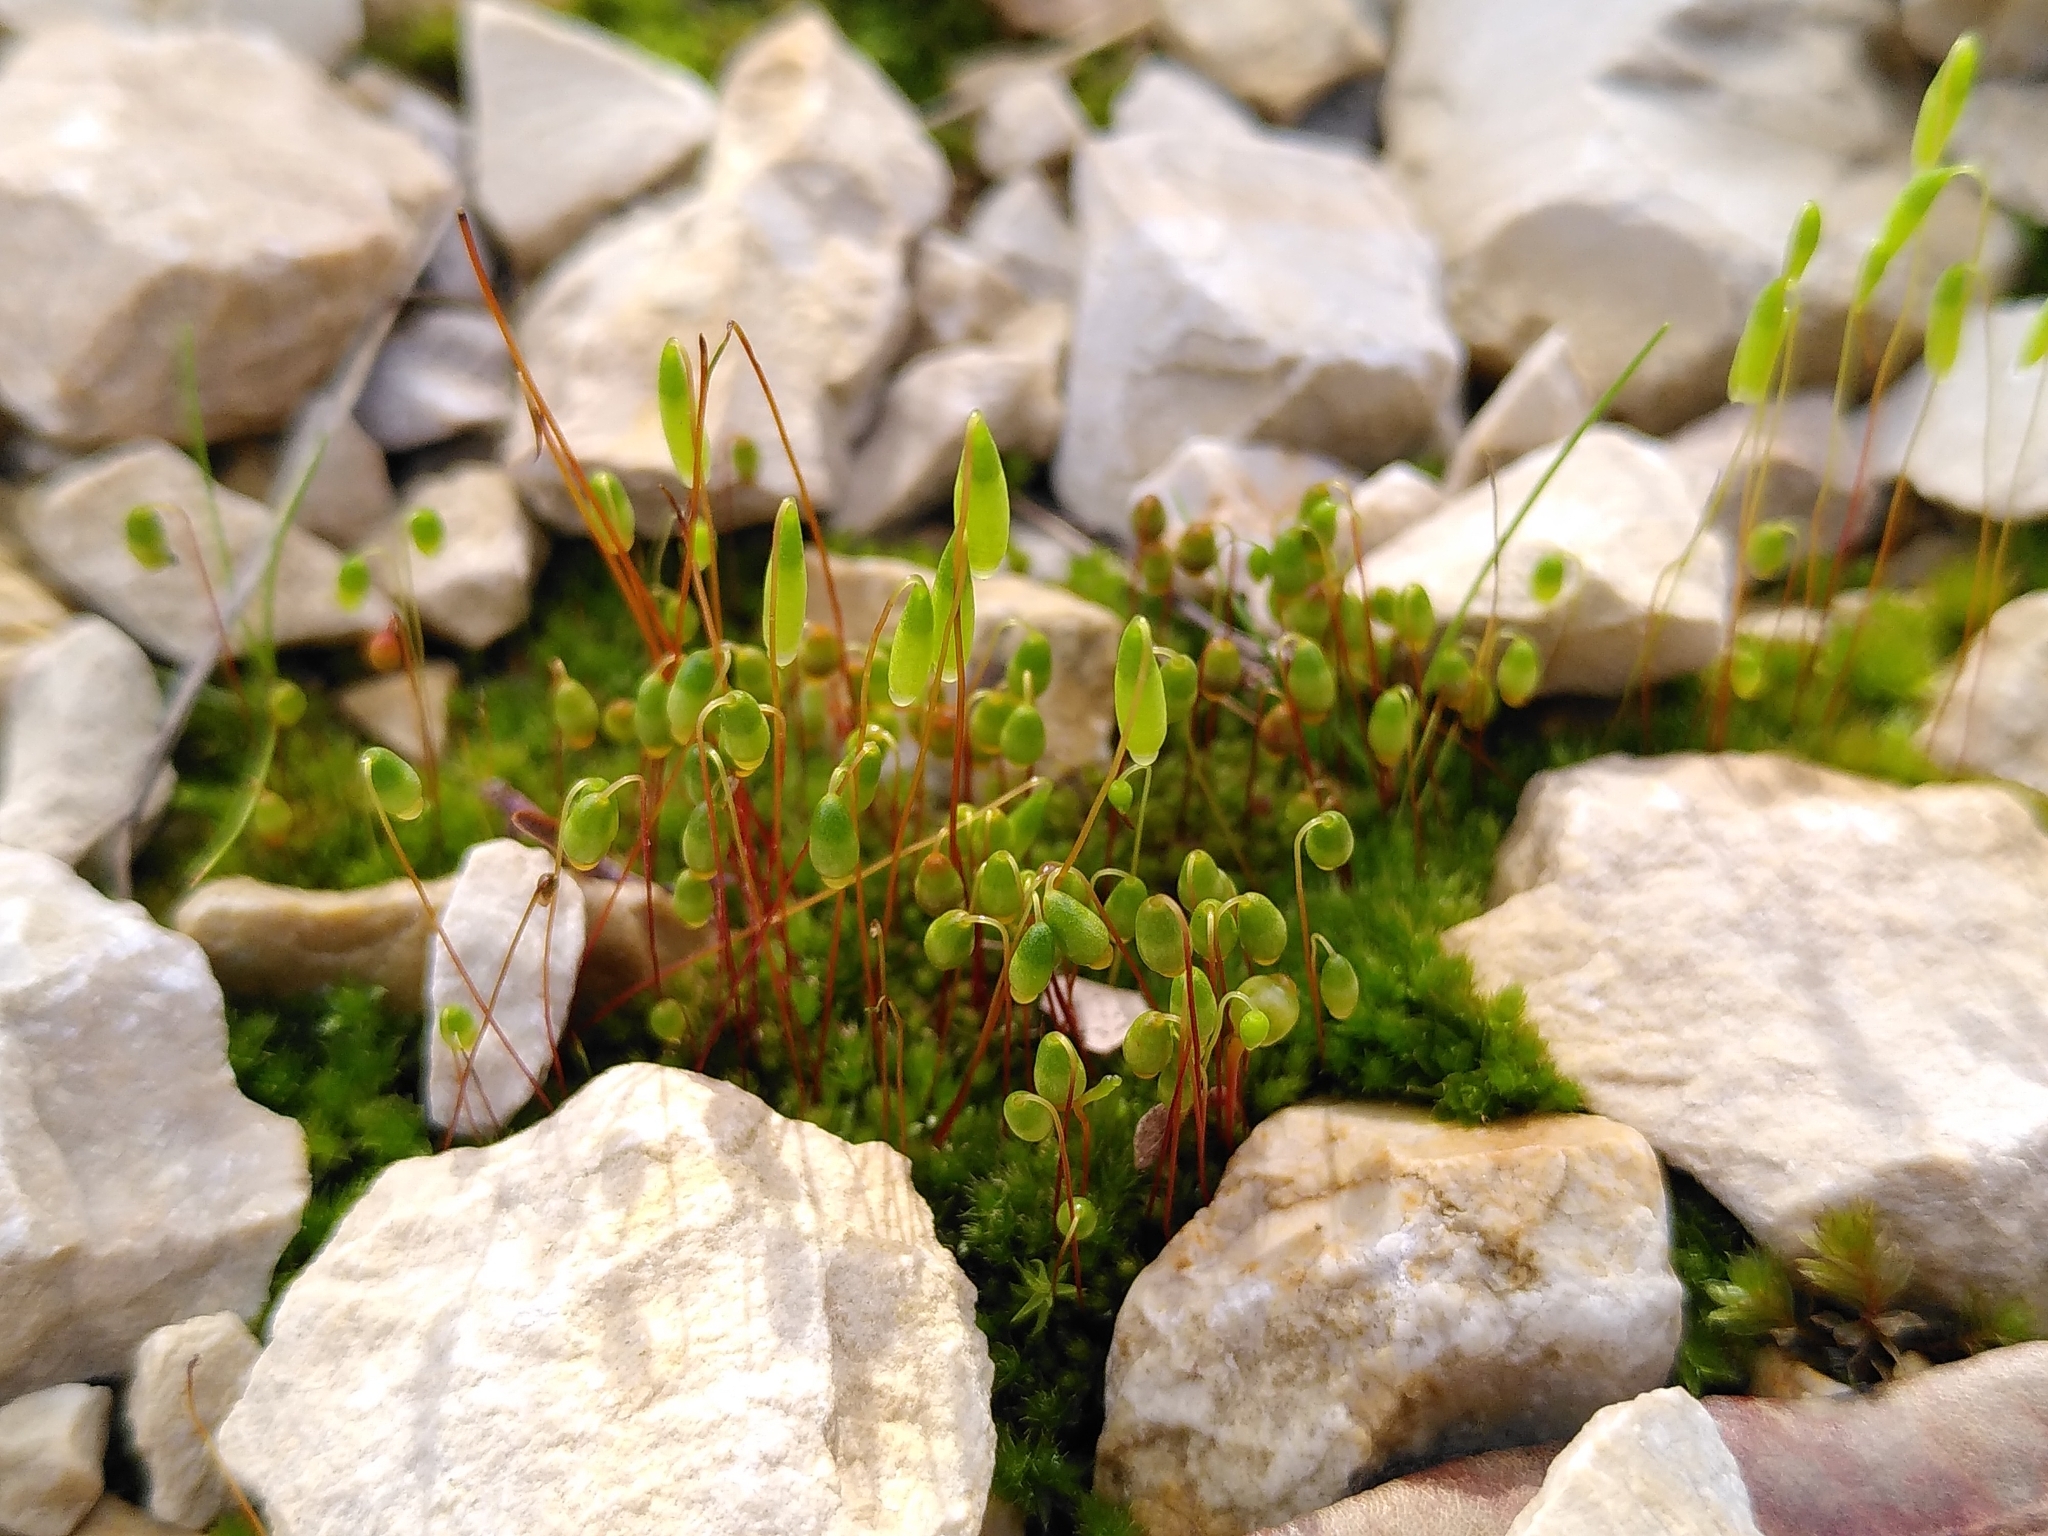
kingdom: Plantae
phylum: Bryophyta
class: Bryopsida
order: Bryales
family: Bryaceae
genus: Rosulabryum
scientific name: Rosulabryum capillare
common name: Capillary thread-moss
